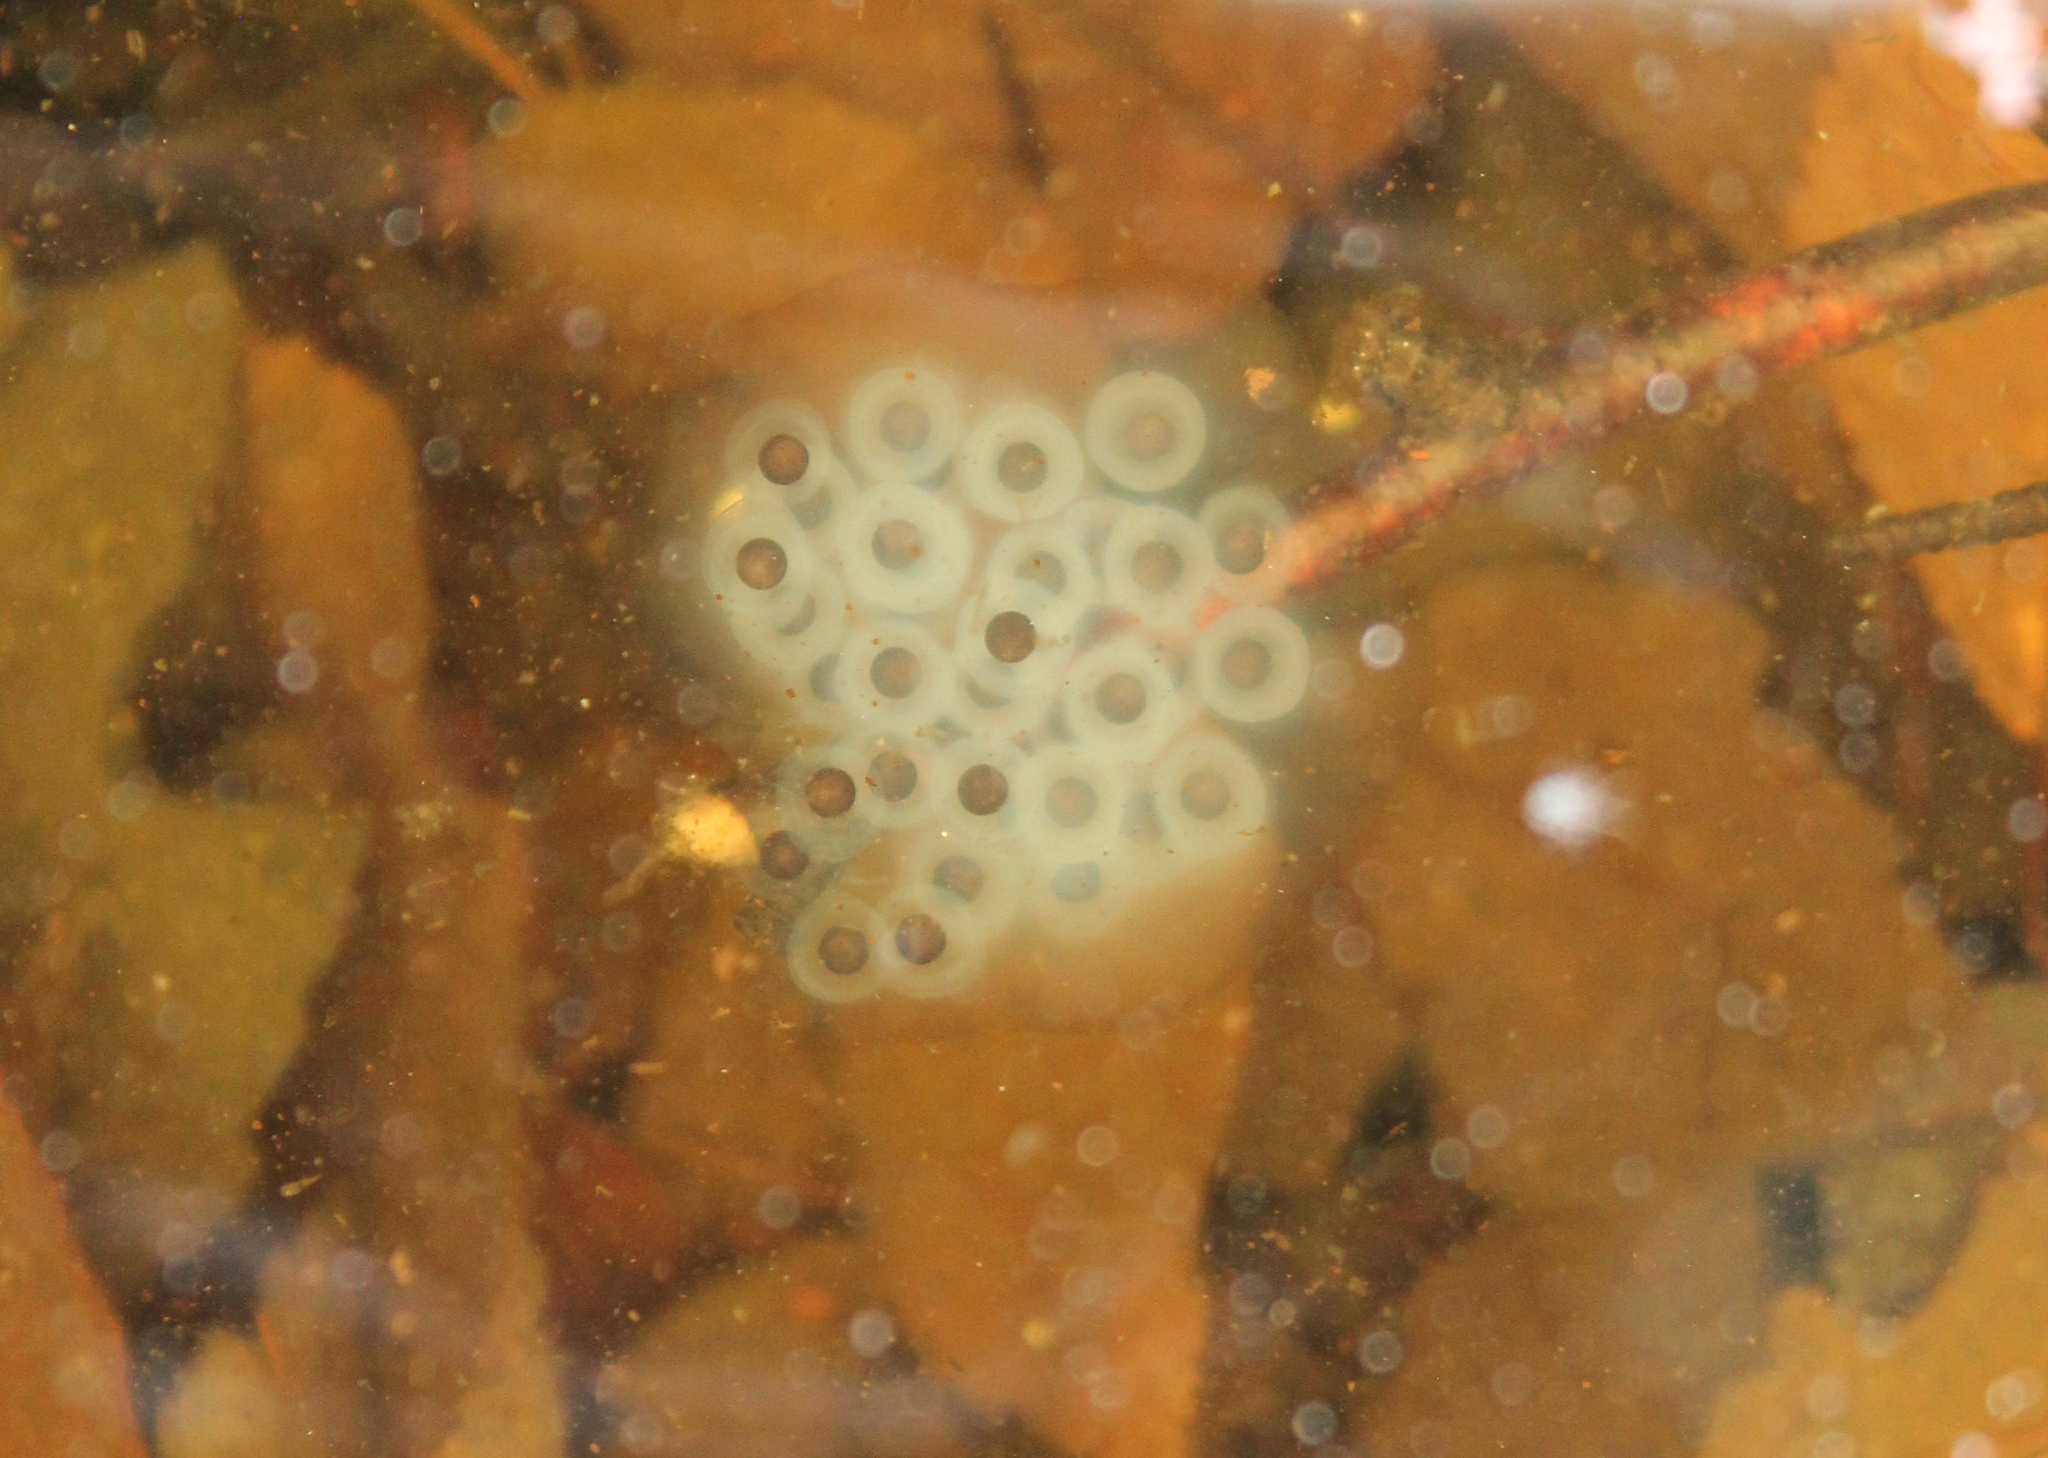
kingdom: Animalia
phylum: Chordata
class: Amphibia
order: Caudata
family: Ambystomatidae
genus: Ambystoma
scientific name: Ambystoma maculatum
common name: Spotted salamander
